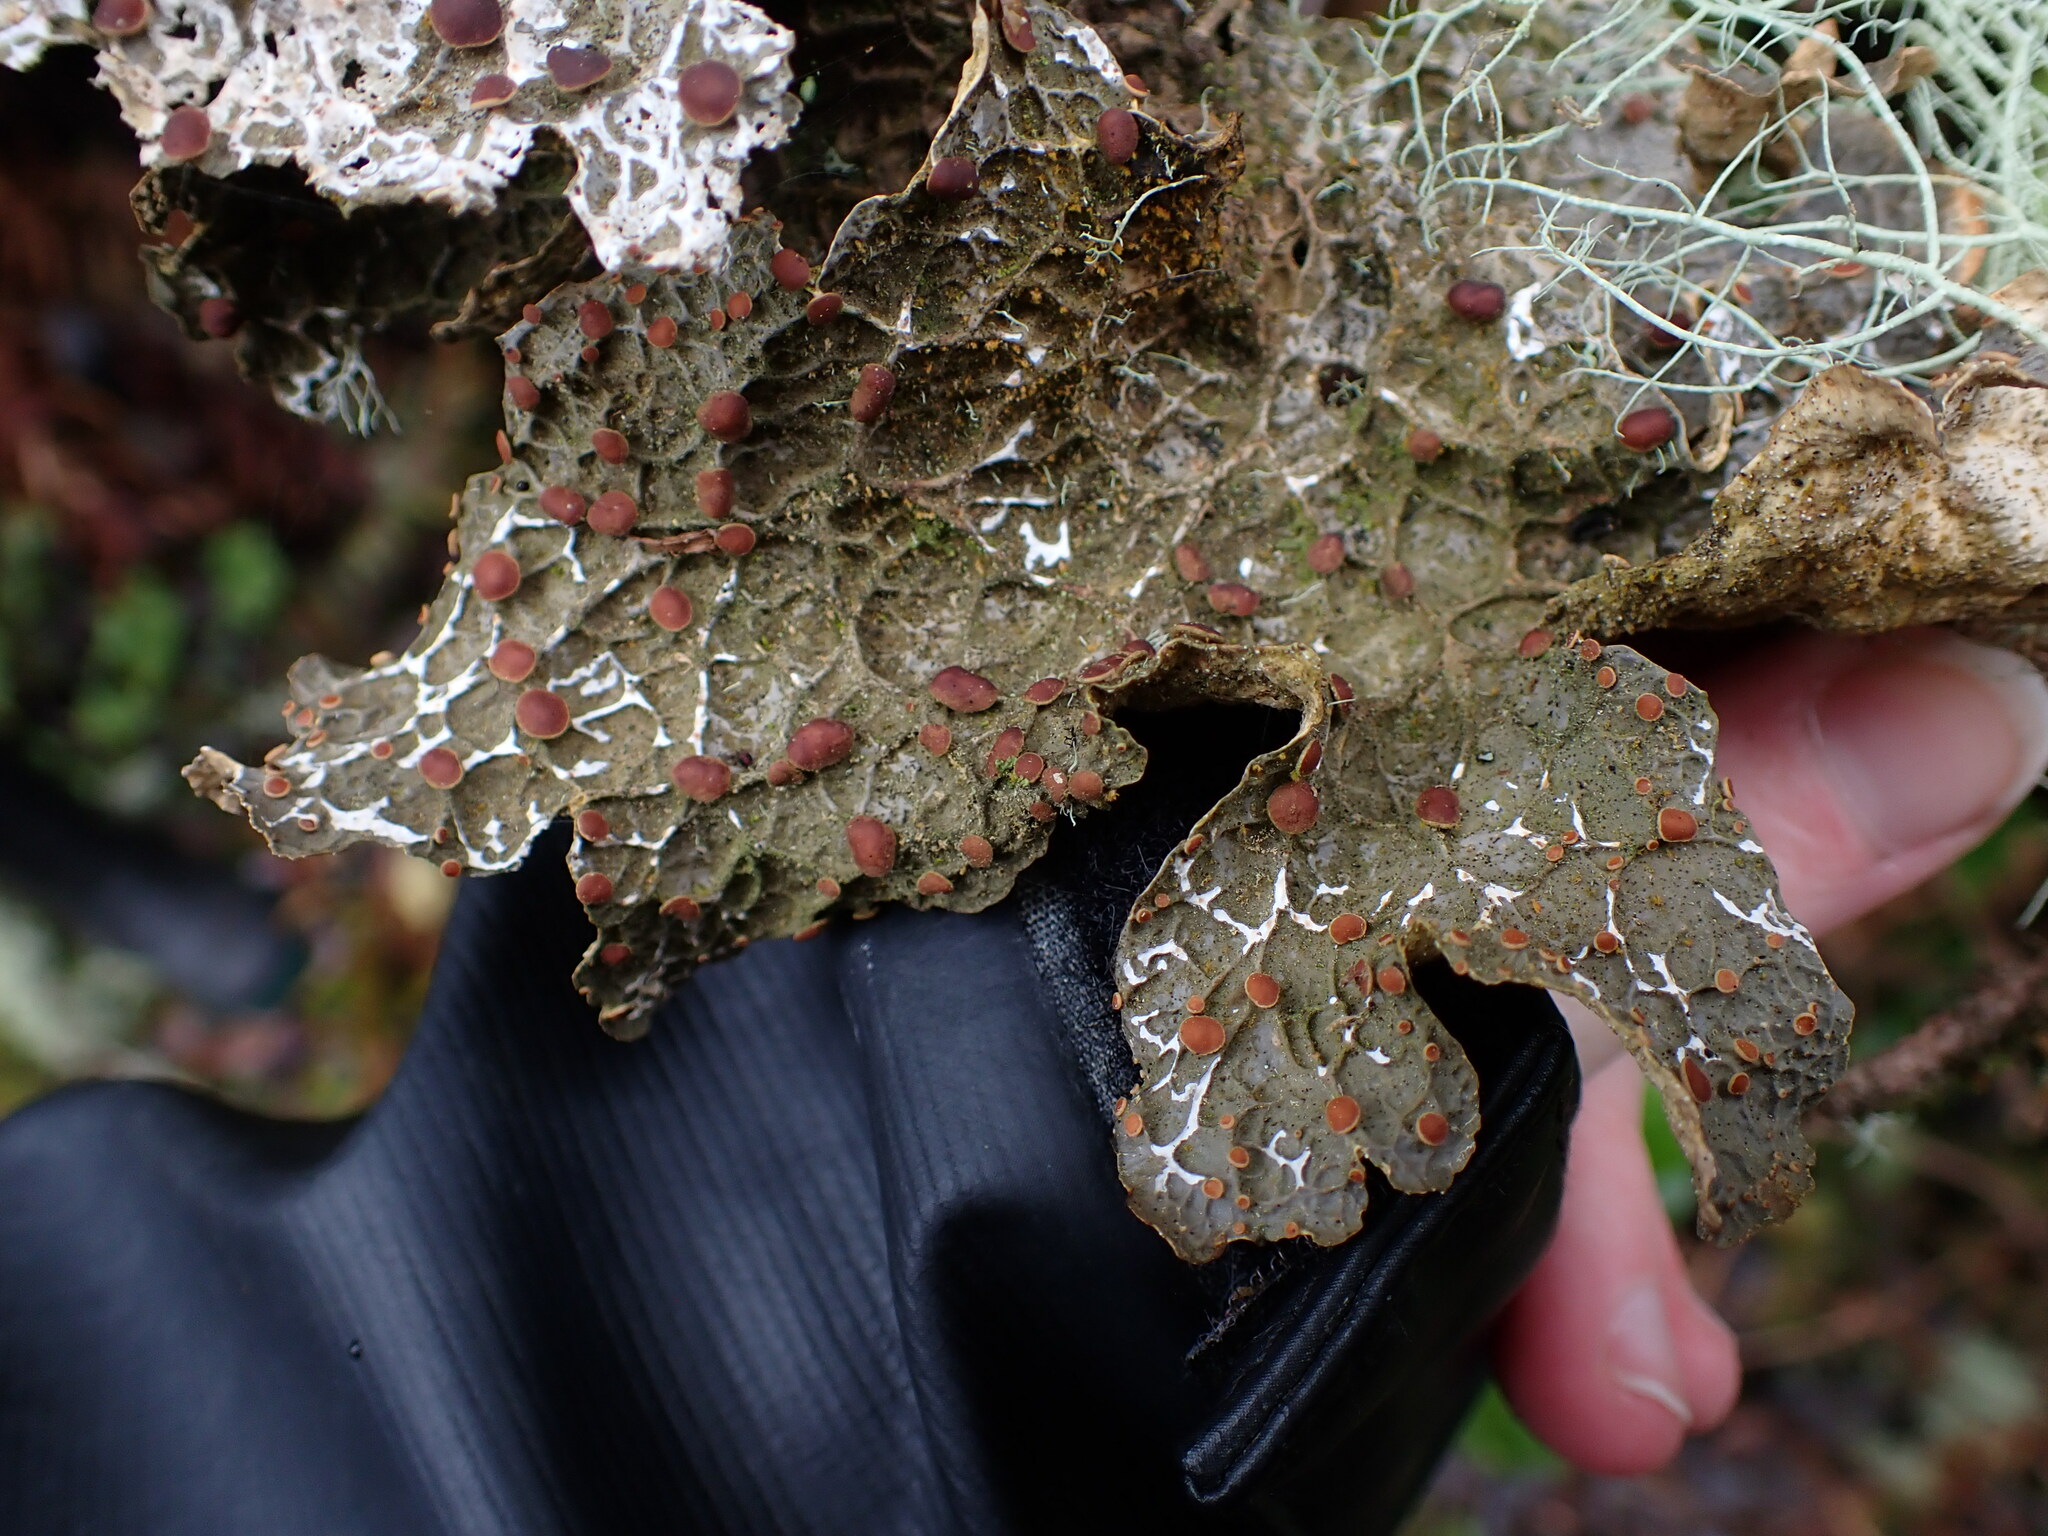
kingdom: Fungi
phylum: Ascomycota
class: Lecanoromycetes
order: Peltigerales
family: Lobariaceae
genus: Lobaria
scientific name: Lobaria anthraspis
